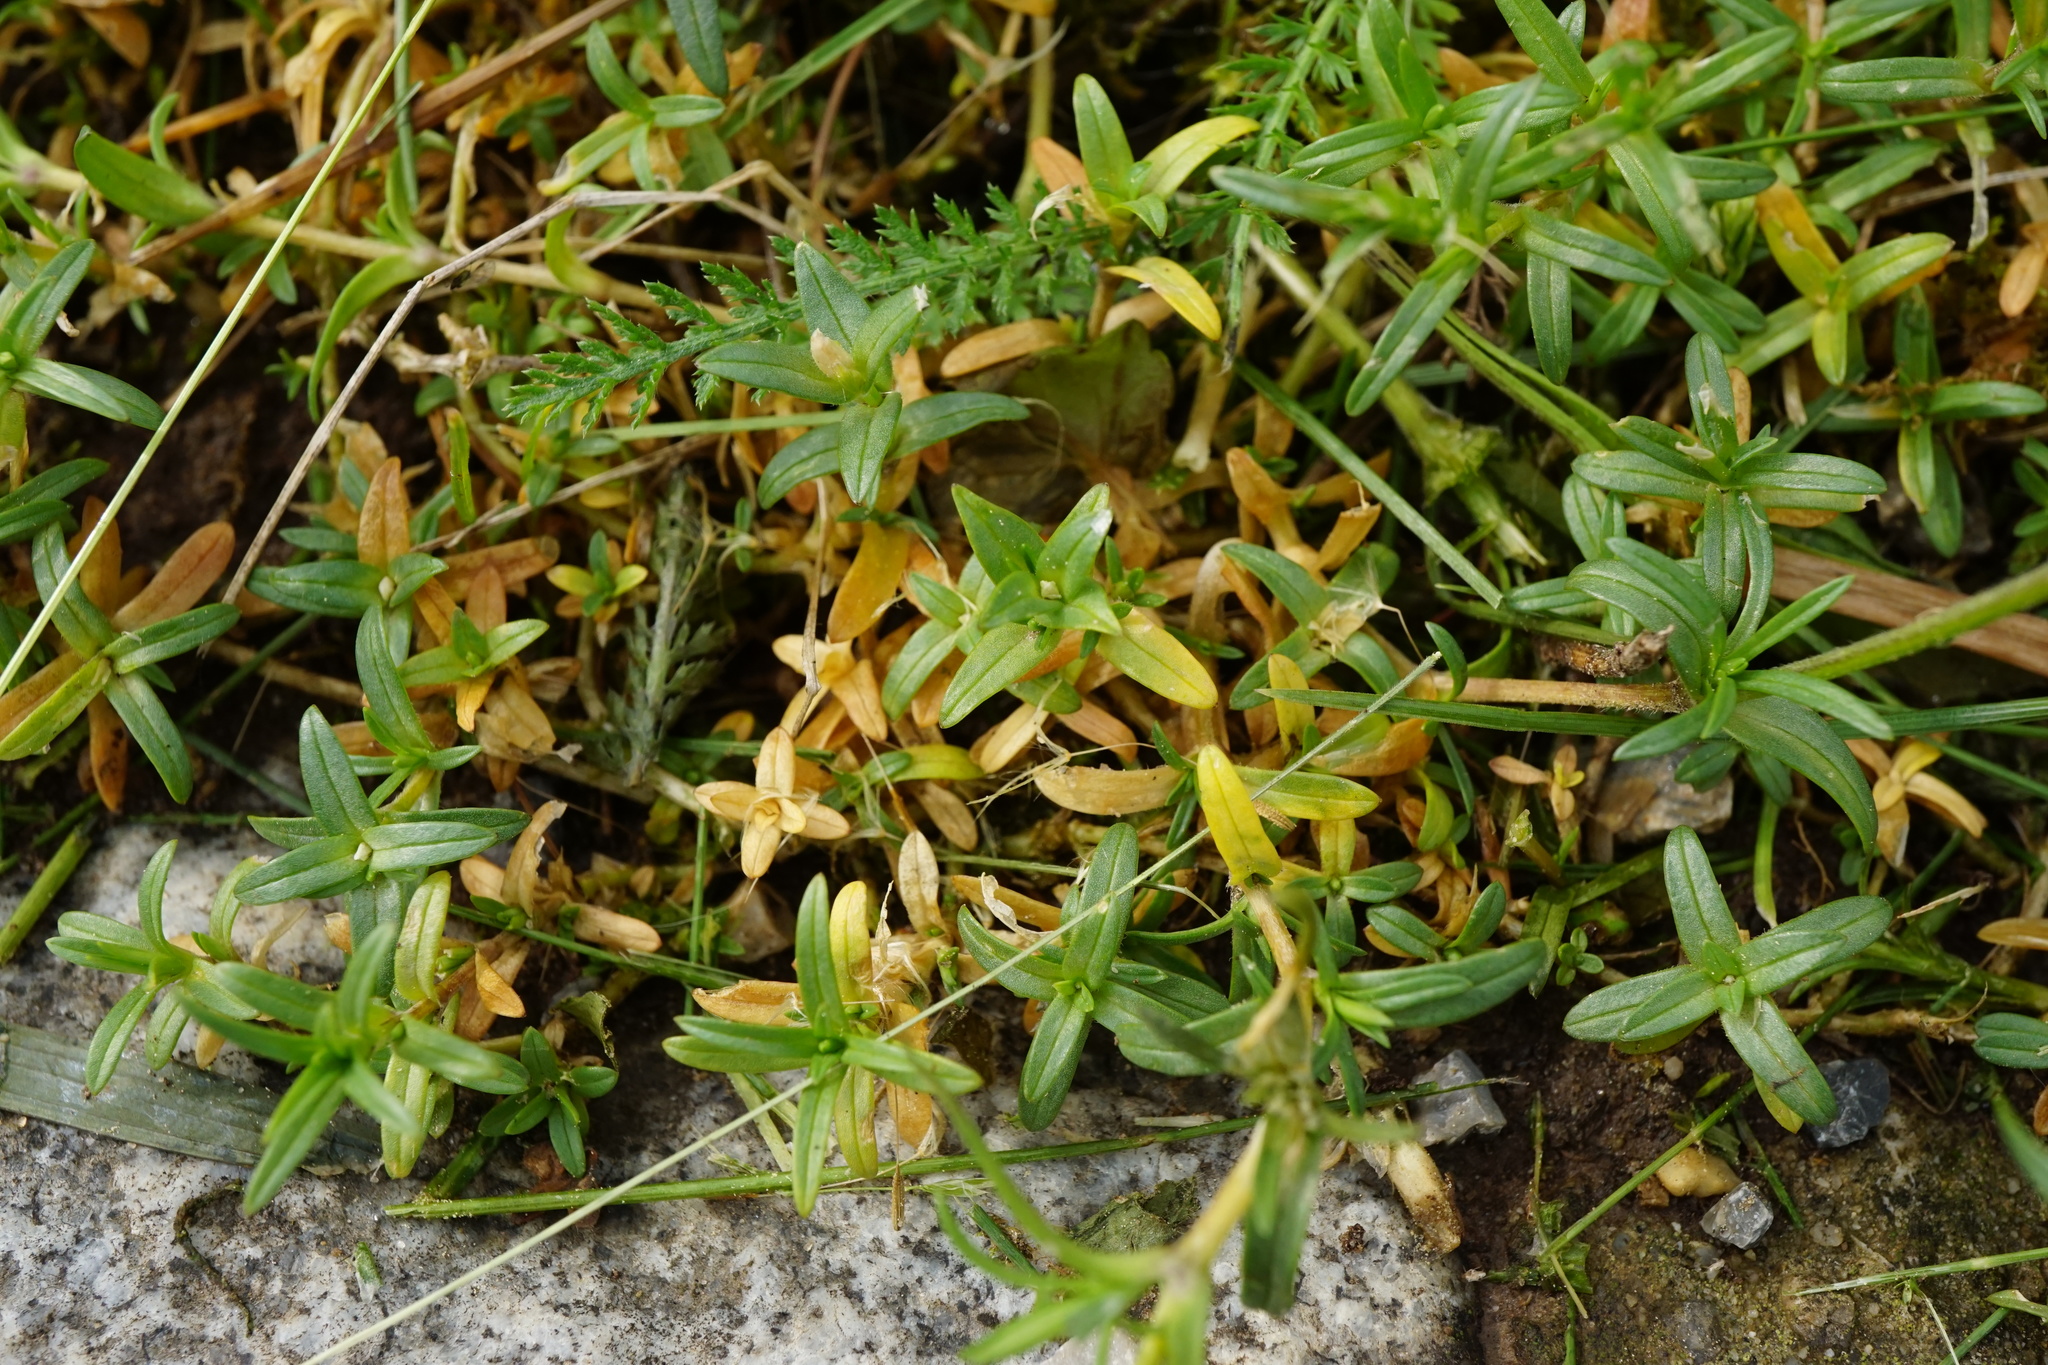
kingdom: Plantae
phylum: Tracheophyta
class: Magnoliopsida
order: Caryophyllales
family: Caryophyllaceae
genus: Cerastium
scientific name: Cerastium arvense
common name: Field mouse-ear
